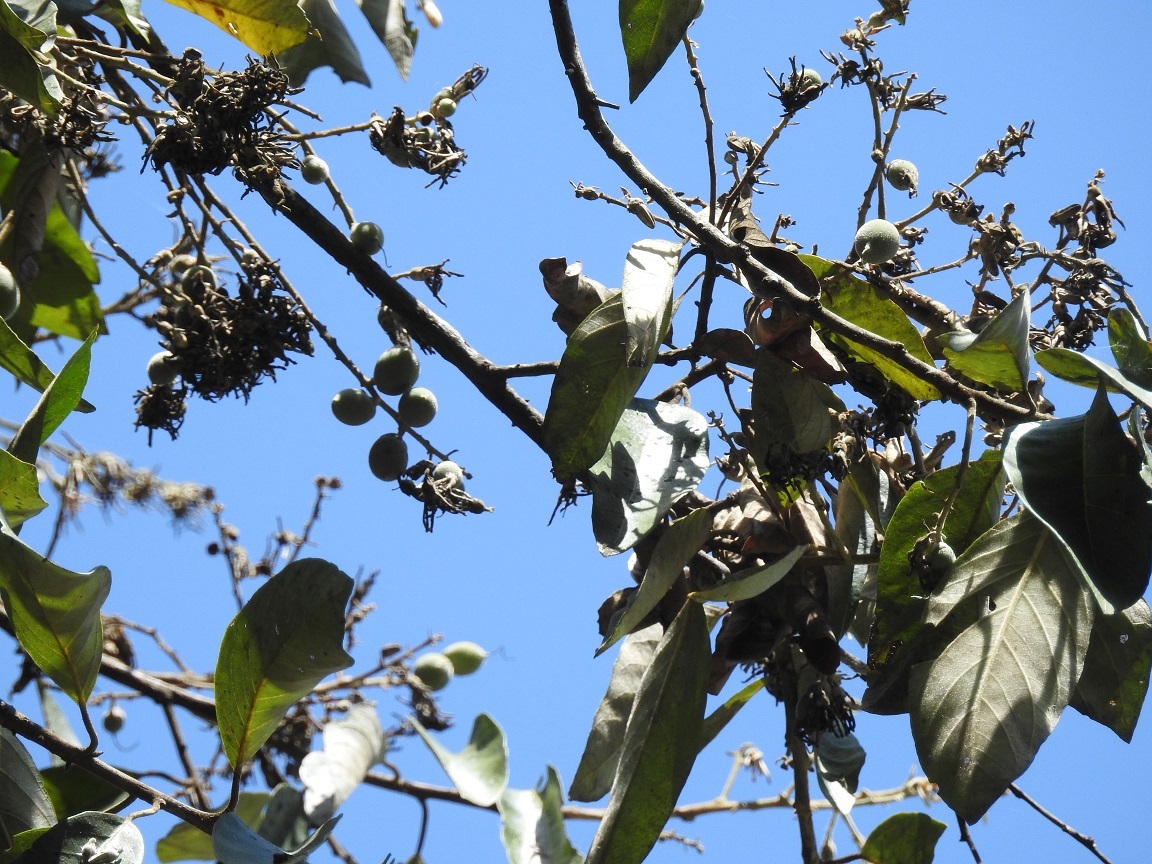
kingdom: Plantae
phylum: Tracheophyta
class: Magnoliopsida
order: Ericales
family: Styracaceae
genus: Styrax
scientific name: Styrax argenteus
